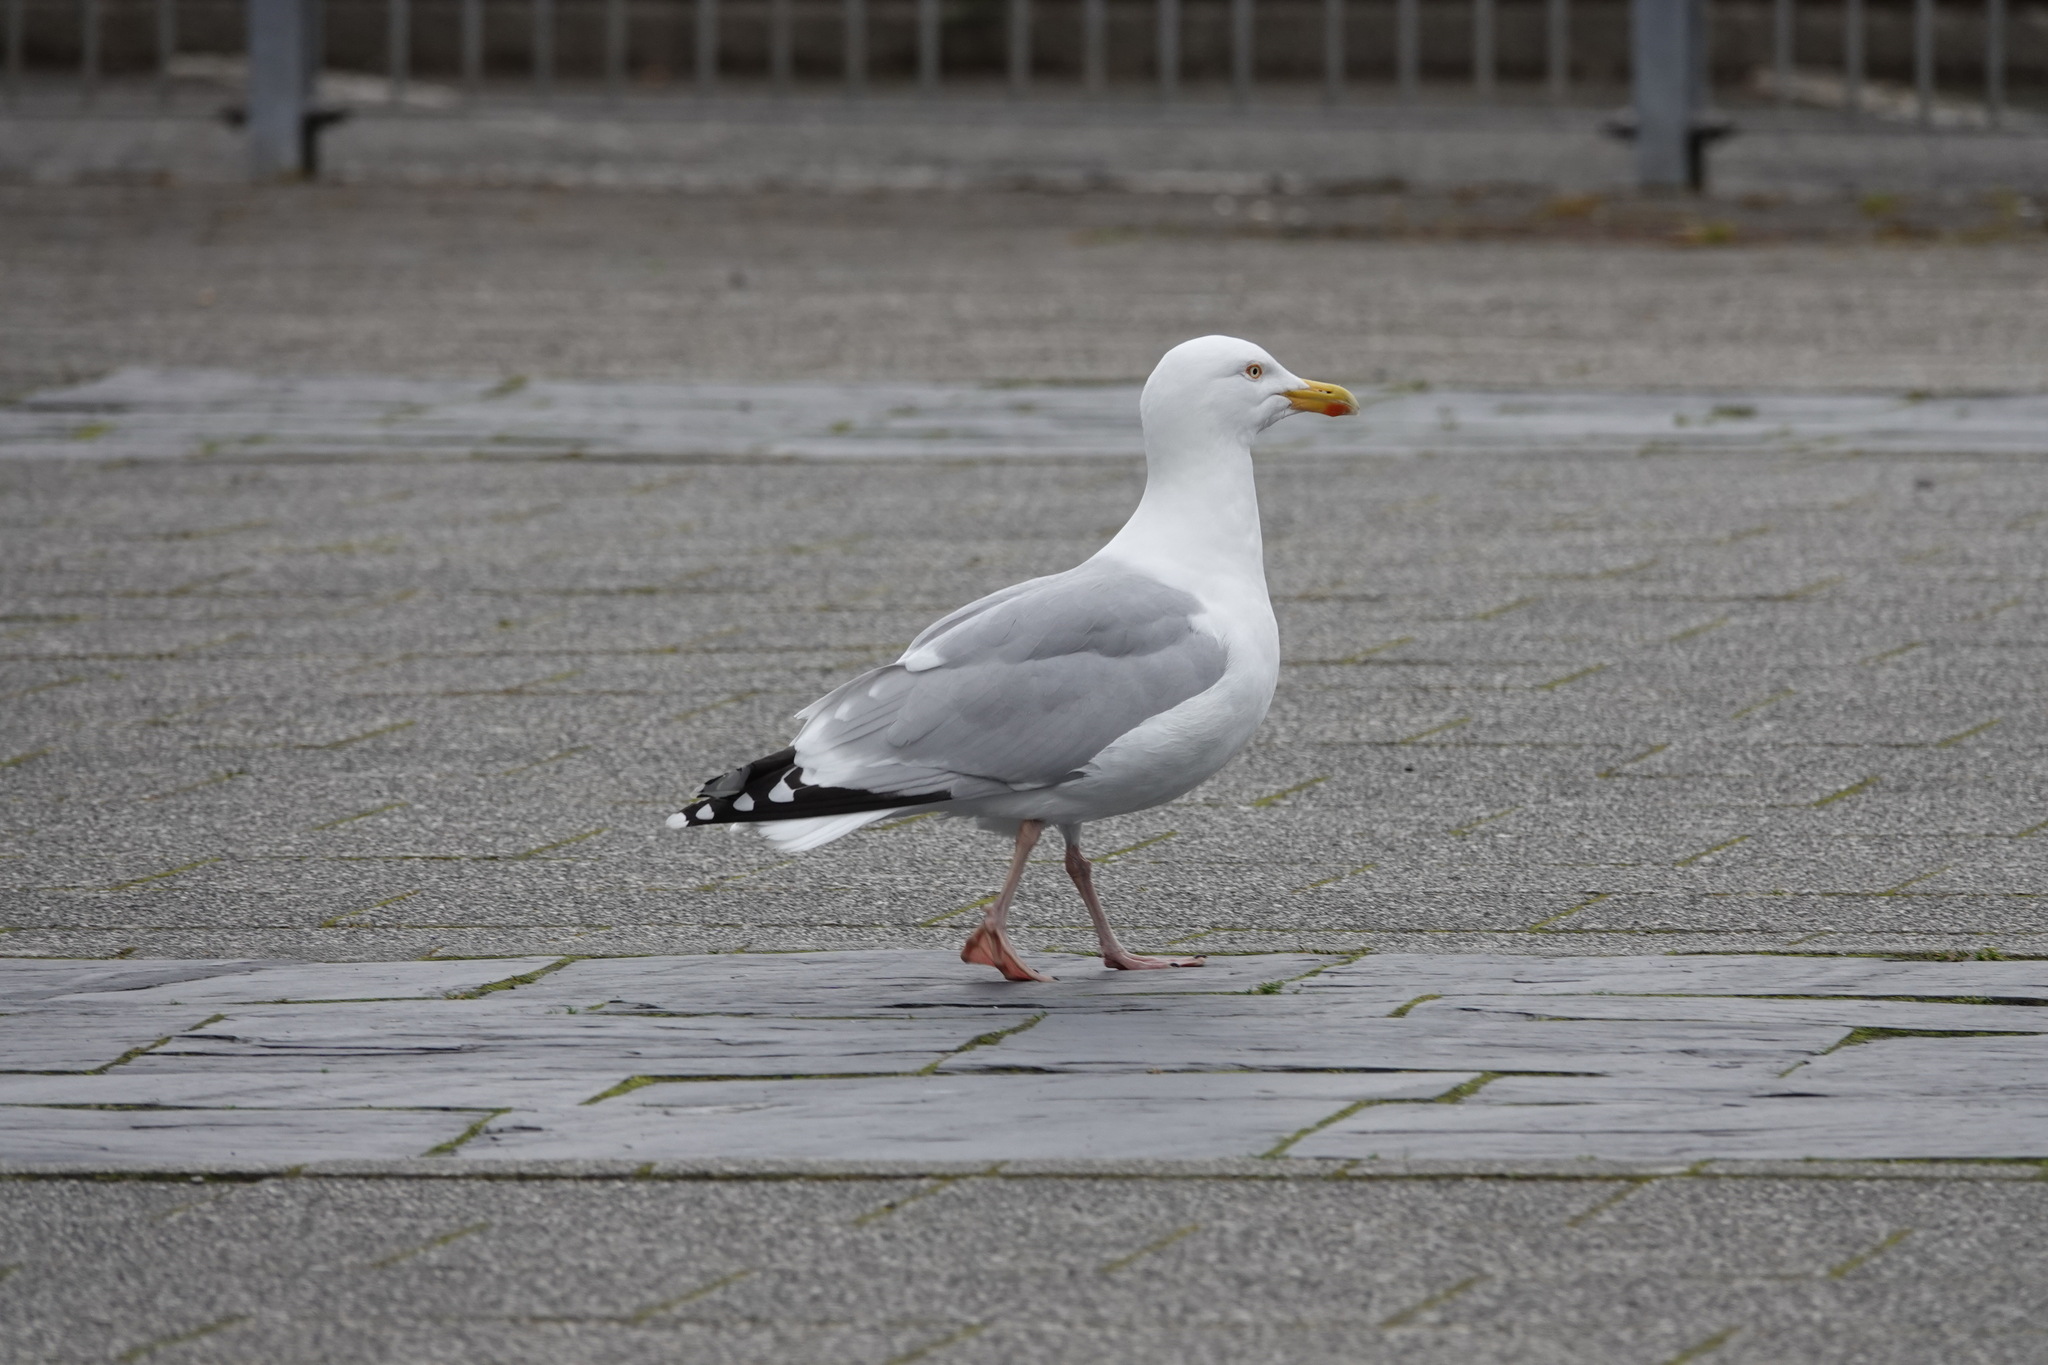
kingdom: Animalia
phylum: Chordata
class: Aves
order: Charadriiformes
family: Laridae
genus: Larus
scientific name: Larus argentatus
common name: Herring gull
